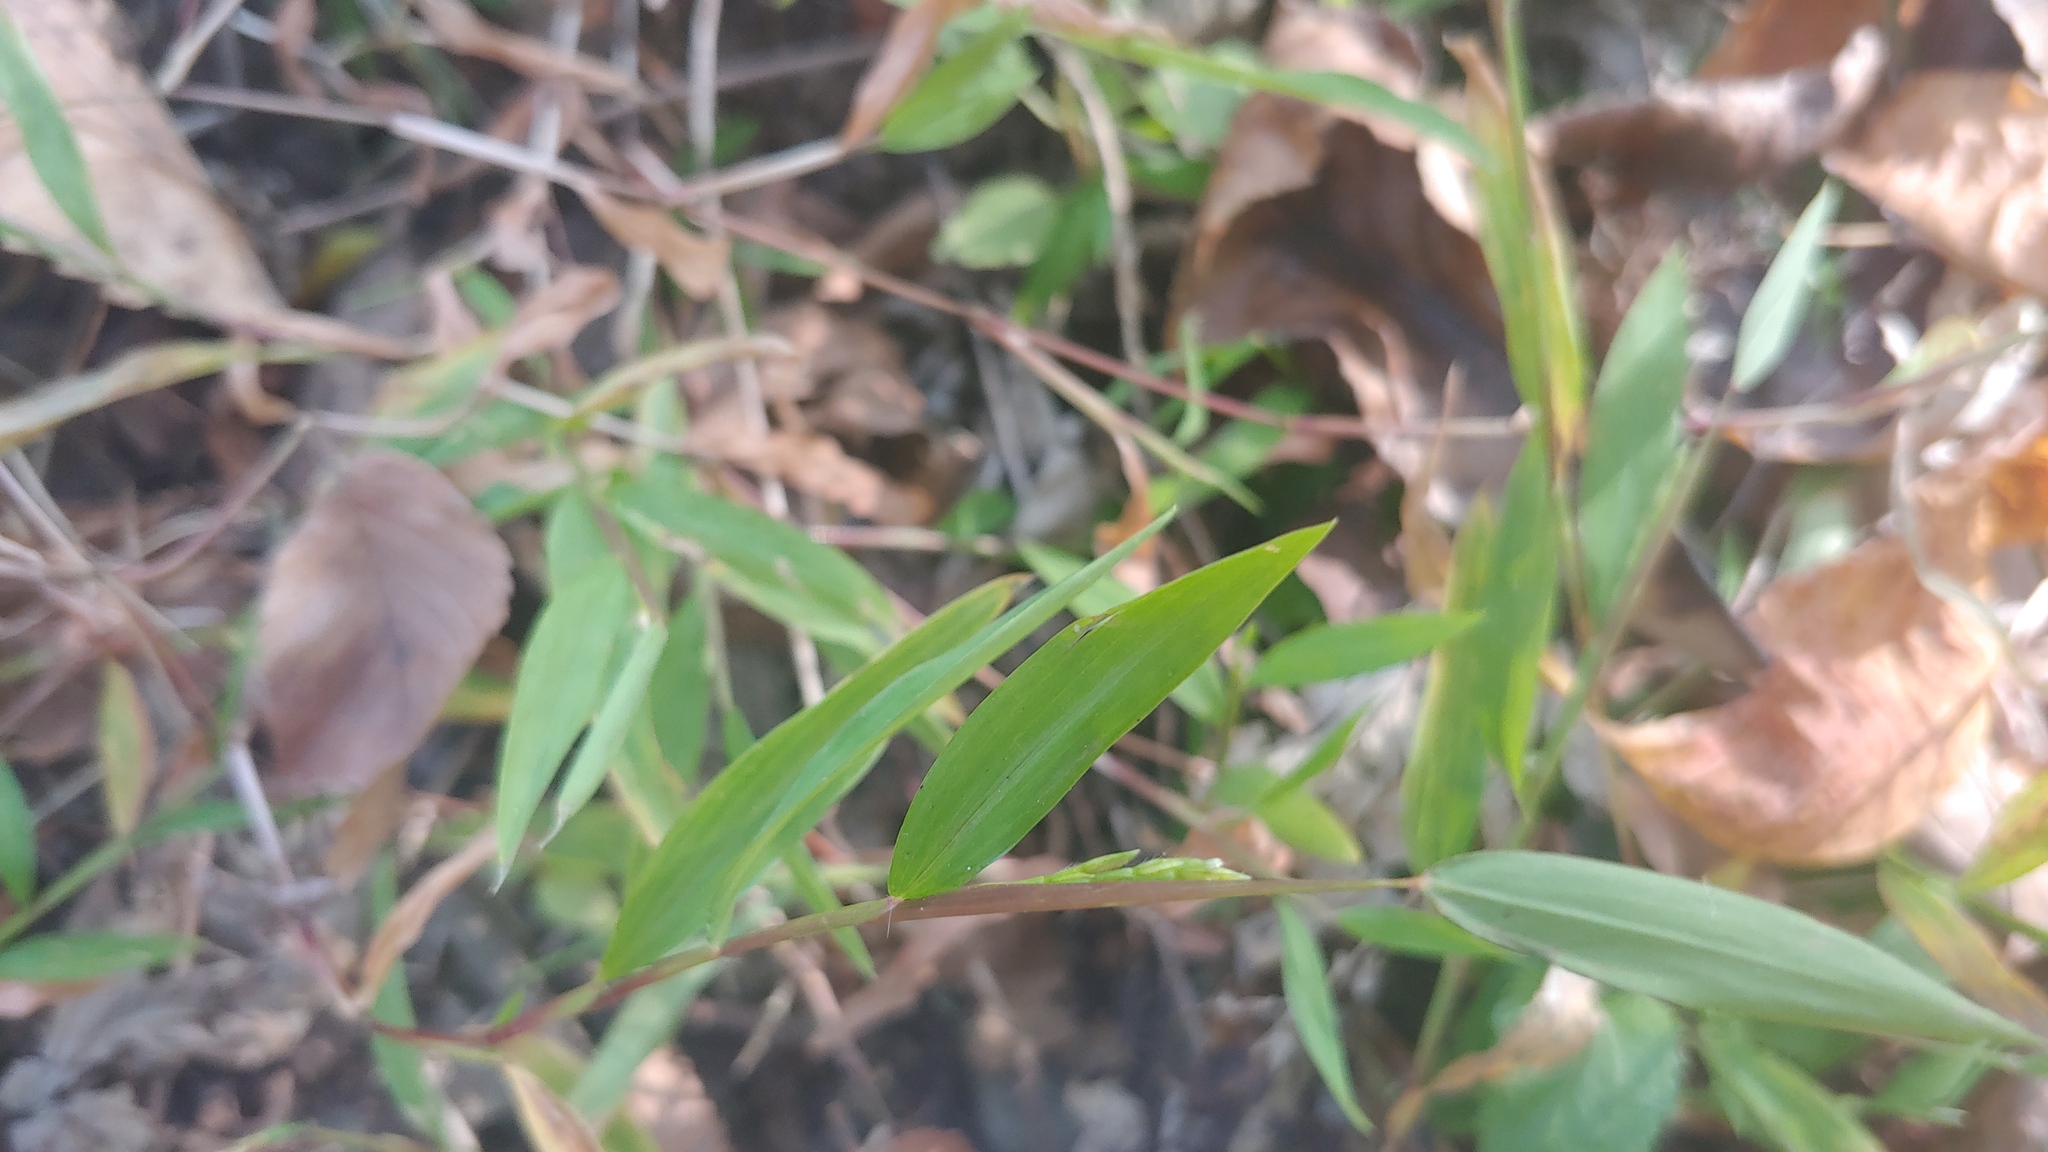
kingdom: Plantae
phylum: Tracheophyta
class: Liliopsida
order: Poales
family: Poaceae
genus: Microstegium
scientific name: Microstegium vimineum
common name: Japanese stiltgrass
